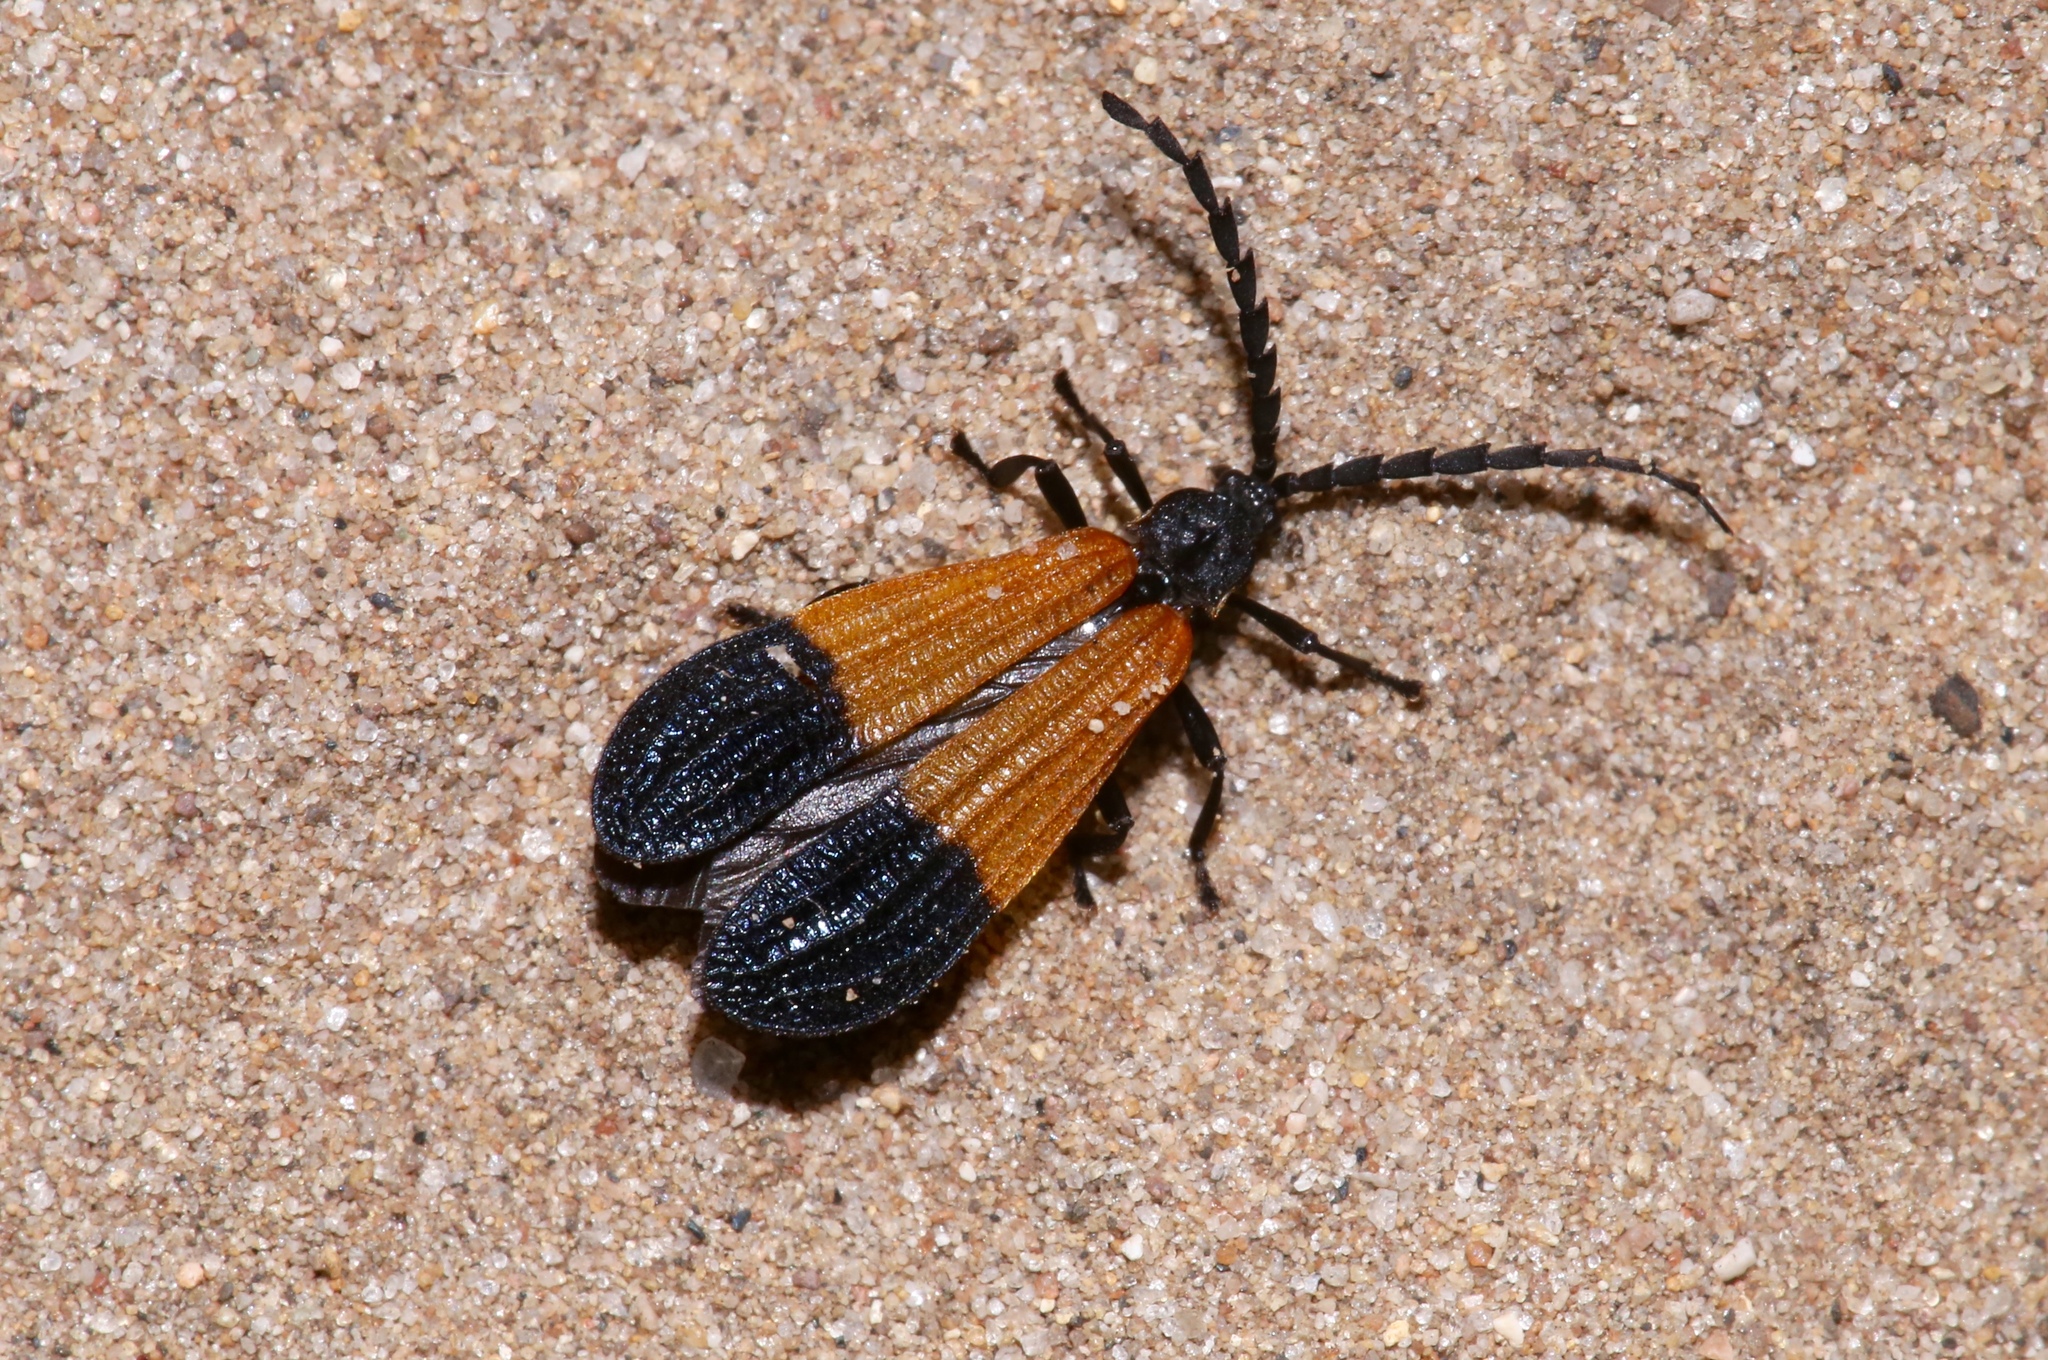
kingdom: Animalia
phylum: Arthropoda
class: Insecta
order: Coleoptera
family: Lycidae
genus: Calopteron
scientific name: Calopteron terminale
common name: End band net-winged beetle
